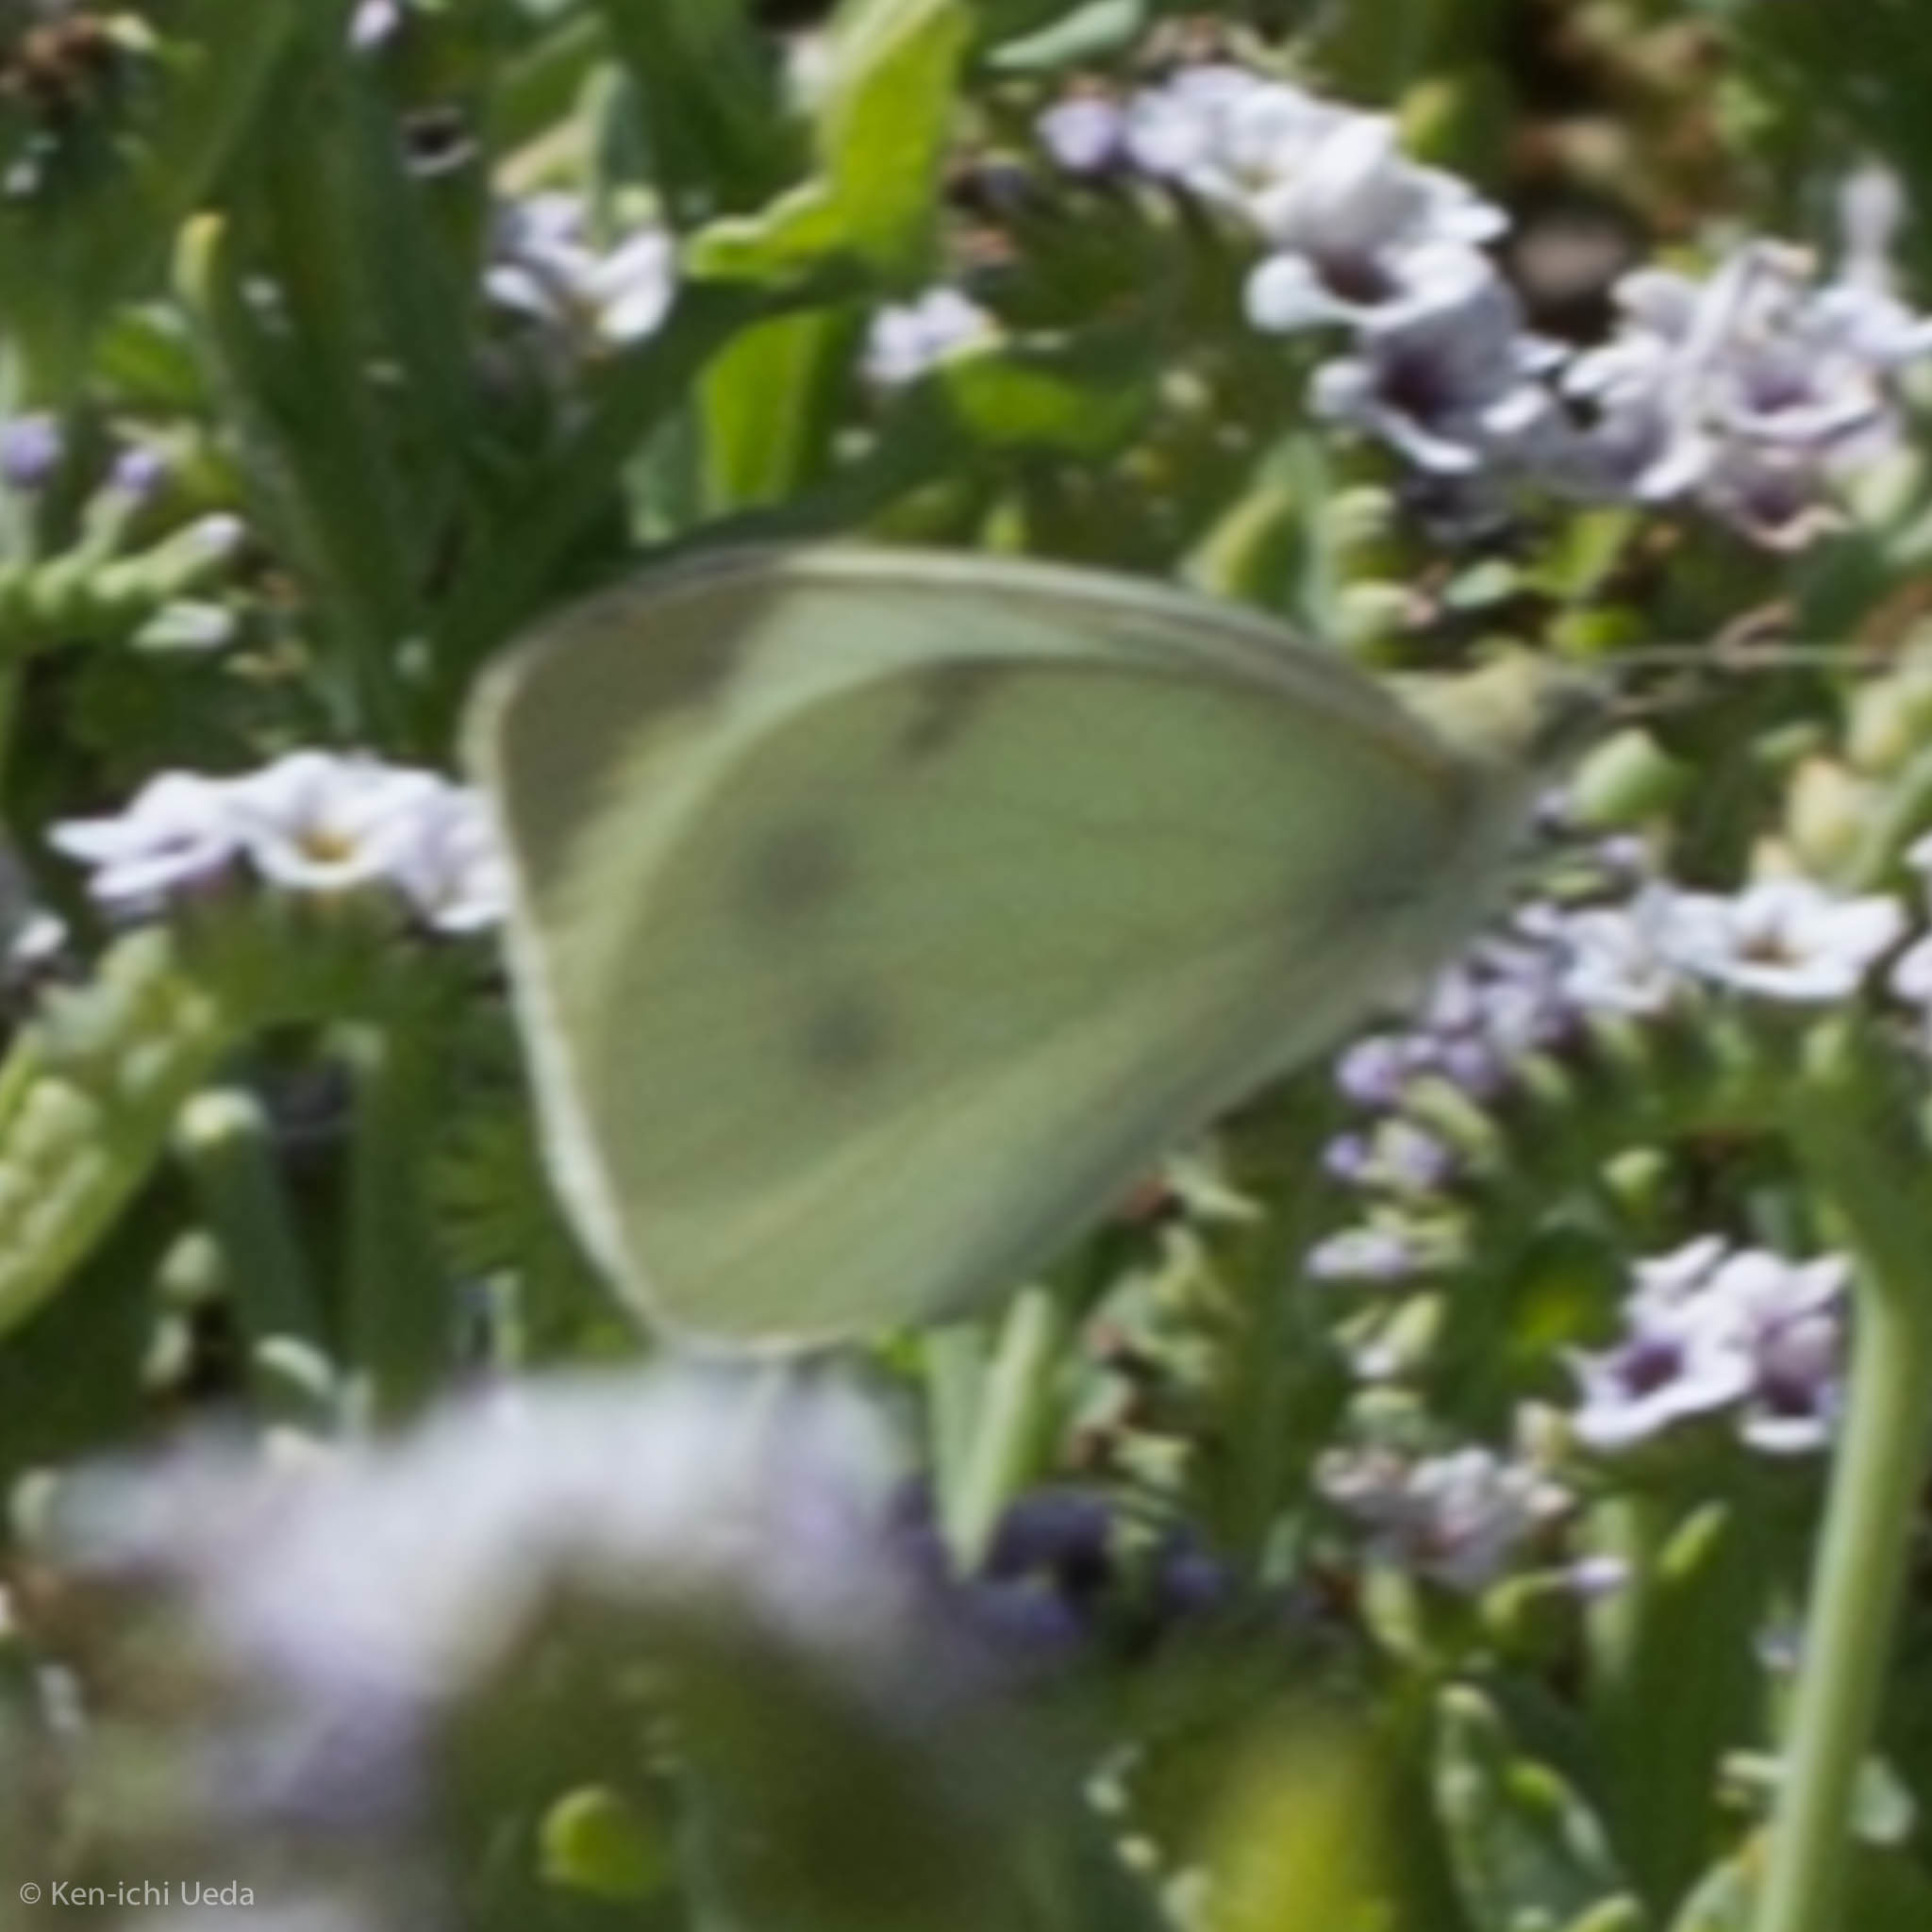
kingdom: Animalia
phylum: Arthropoda
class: Insecta
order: Lepidoptera
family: Pieridae
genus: Pieris
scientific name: Pieris rapae
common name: Small white
